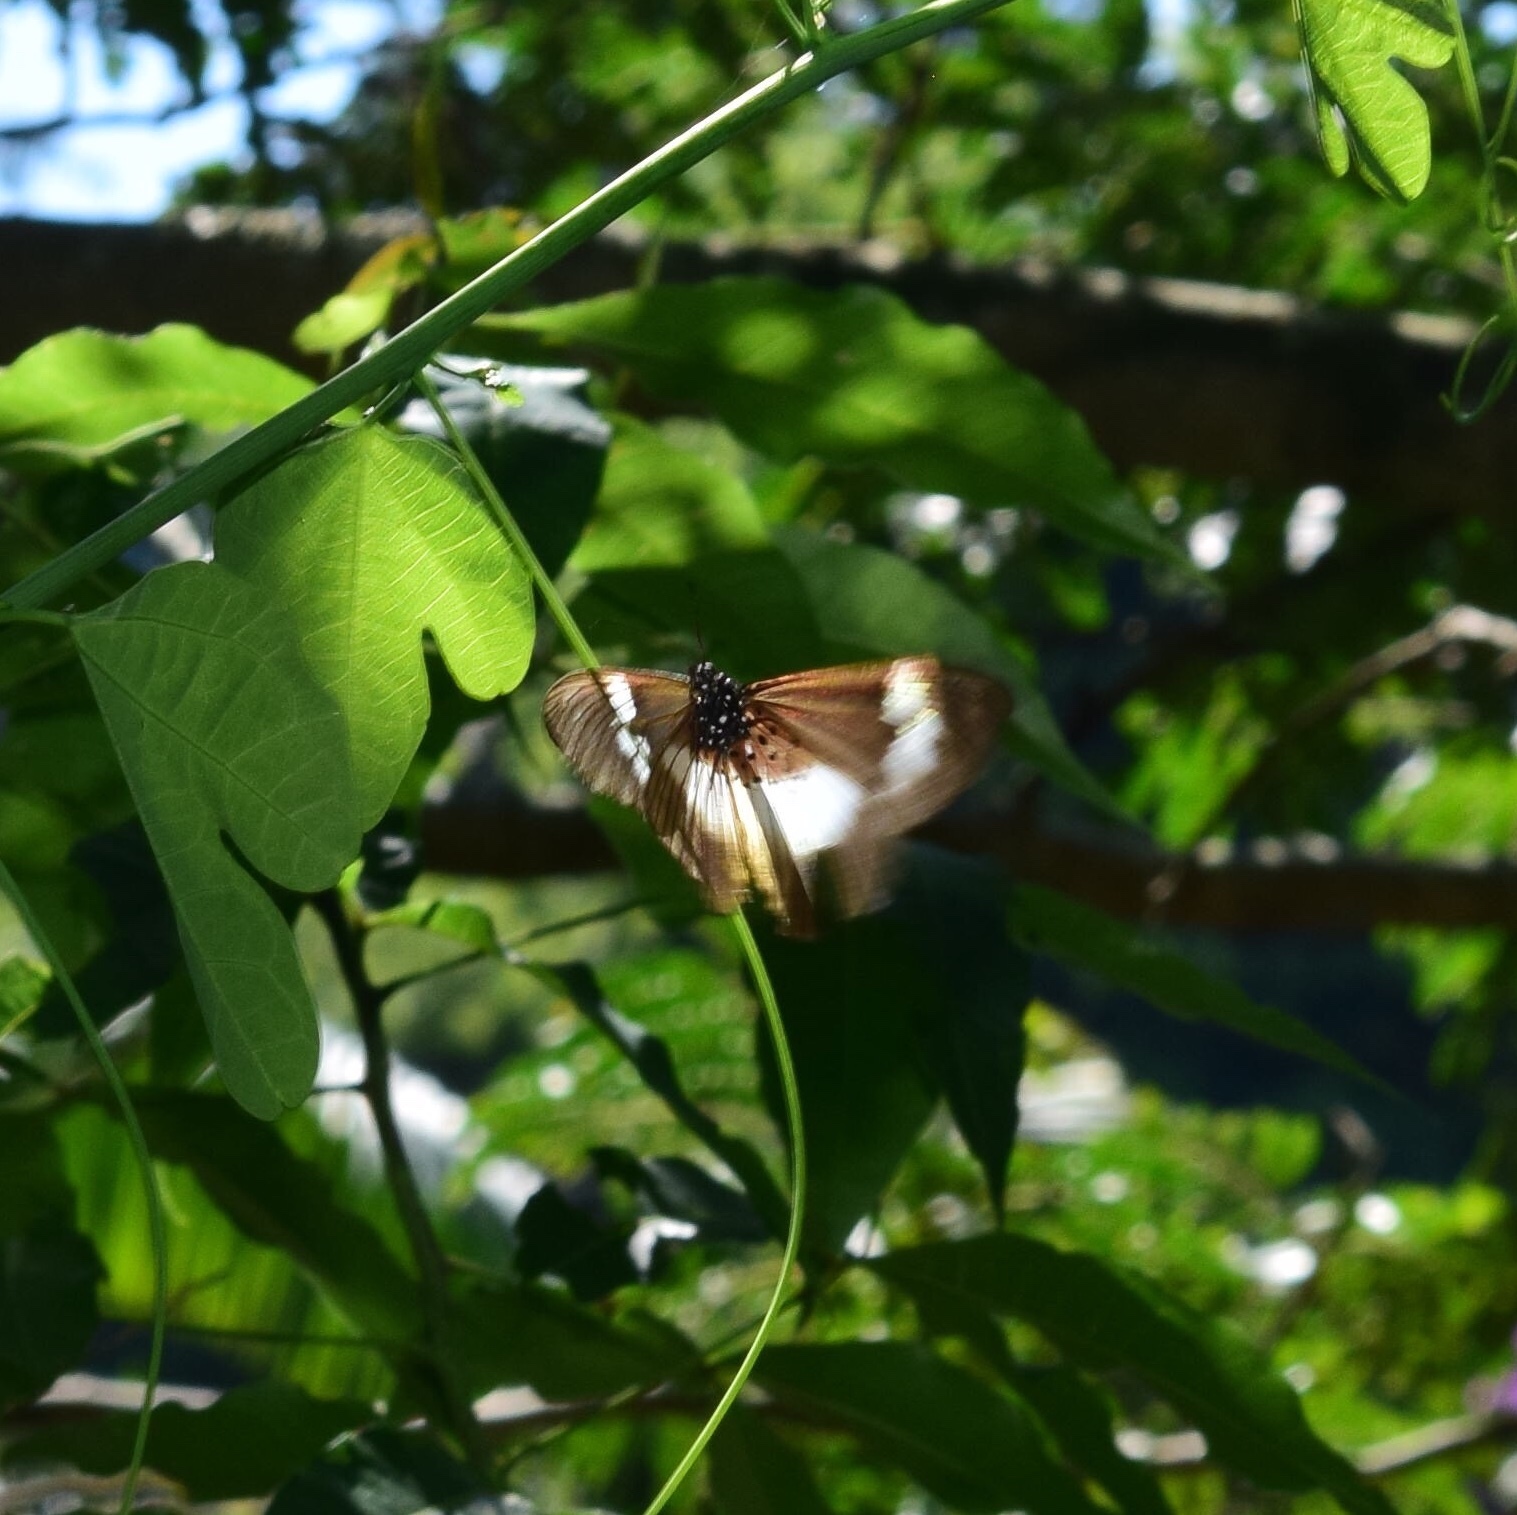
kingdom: Animalia
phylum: Arthropoda
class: Insecta
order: Lepidoptera
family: Nymphalidae
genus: Acraea
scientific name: Acraea Bematistes aganice
